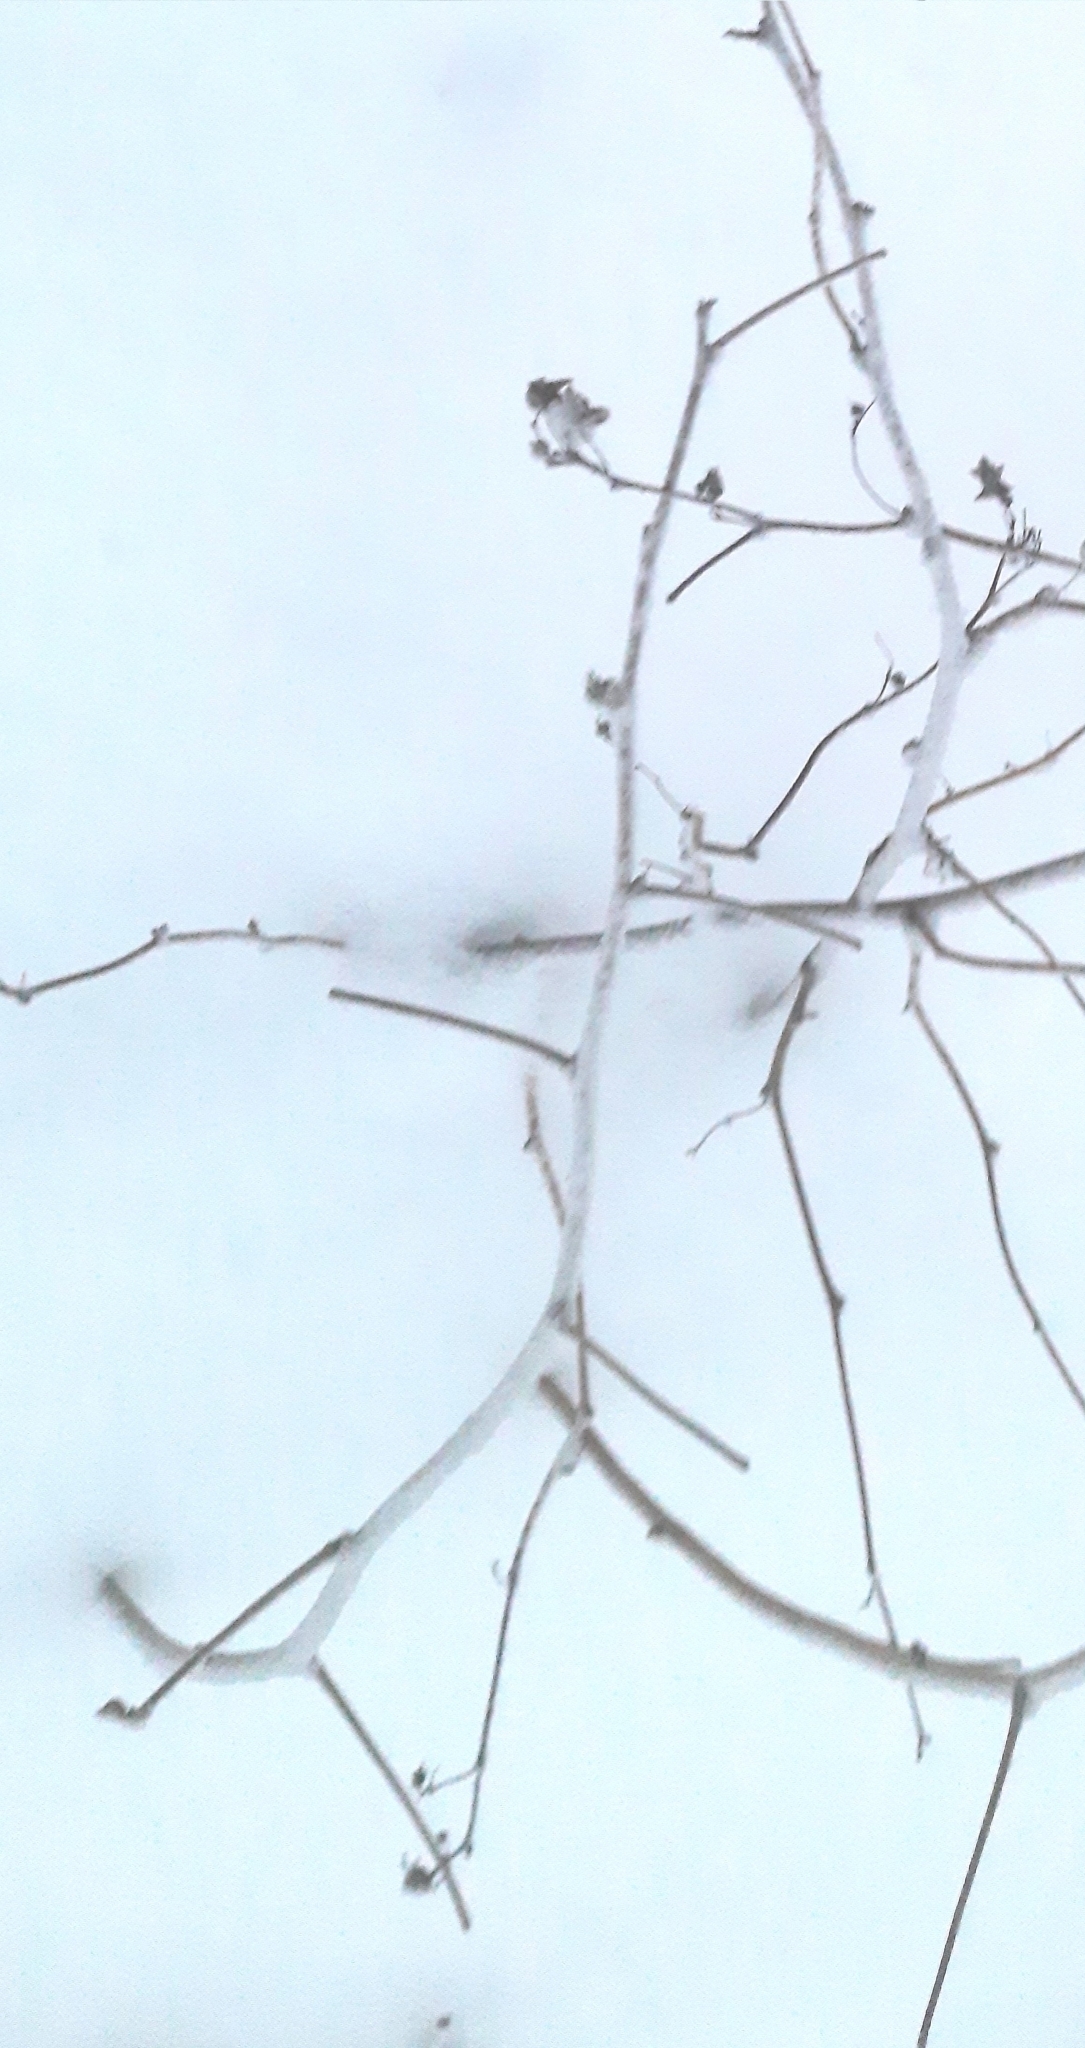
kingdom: Plantae
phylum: Tracheophyta
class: Magnoliopsida
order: Rosales
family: Rosaceae
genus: Rubus
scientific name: Rubus idaeus
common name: Raspberry
